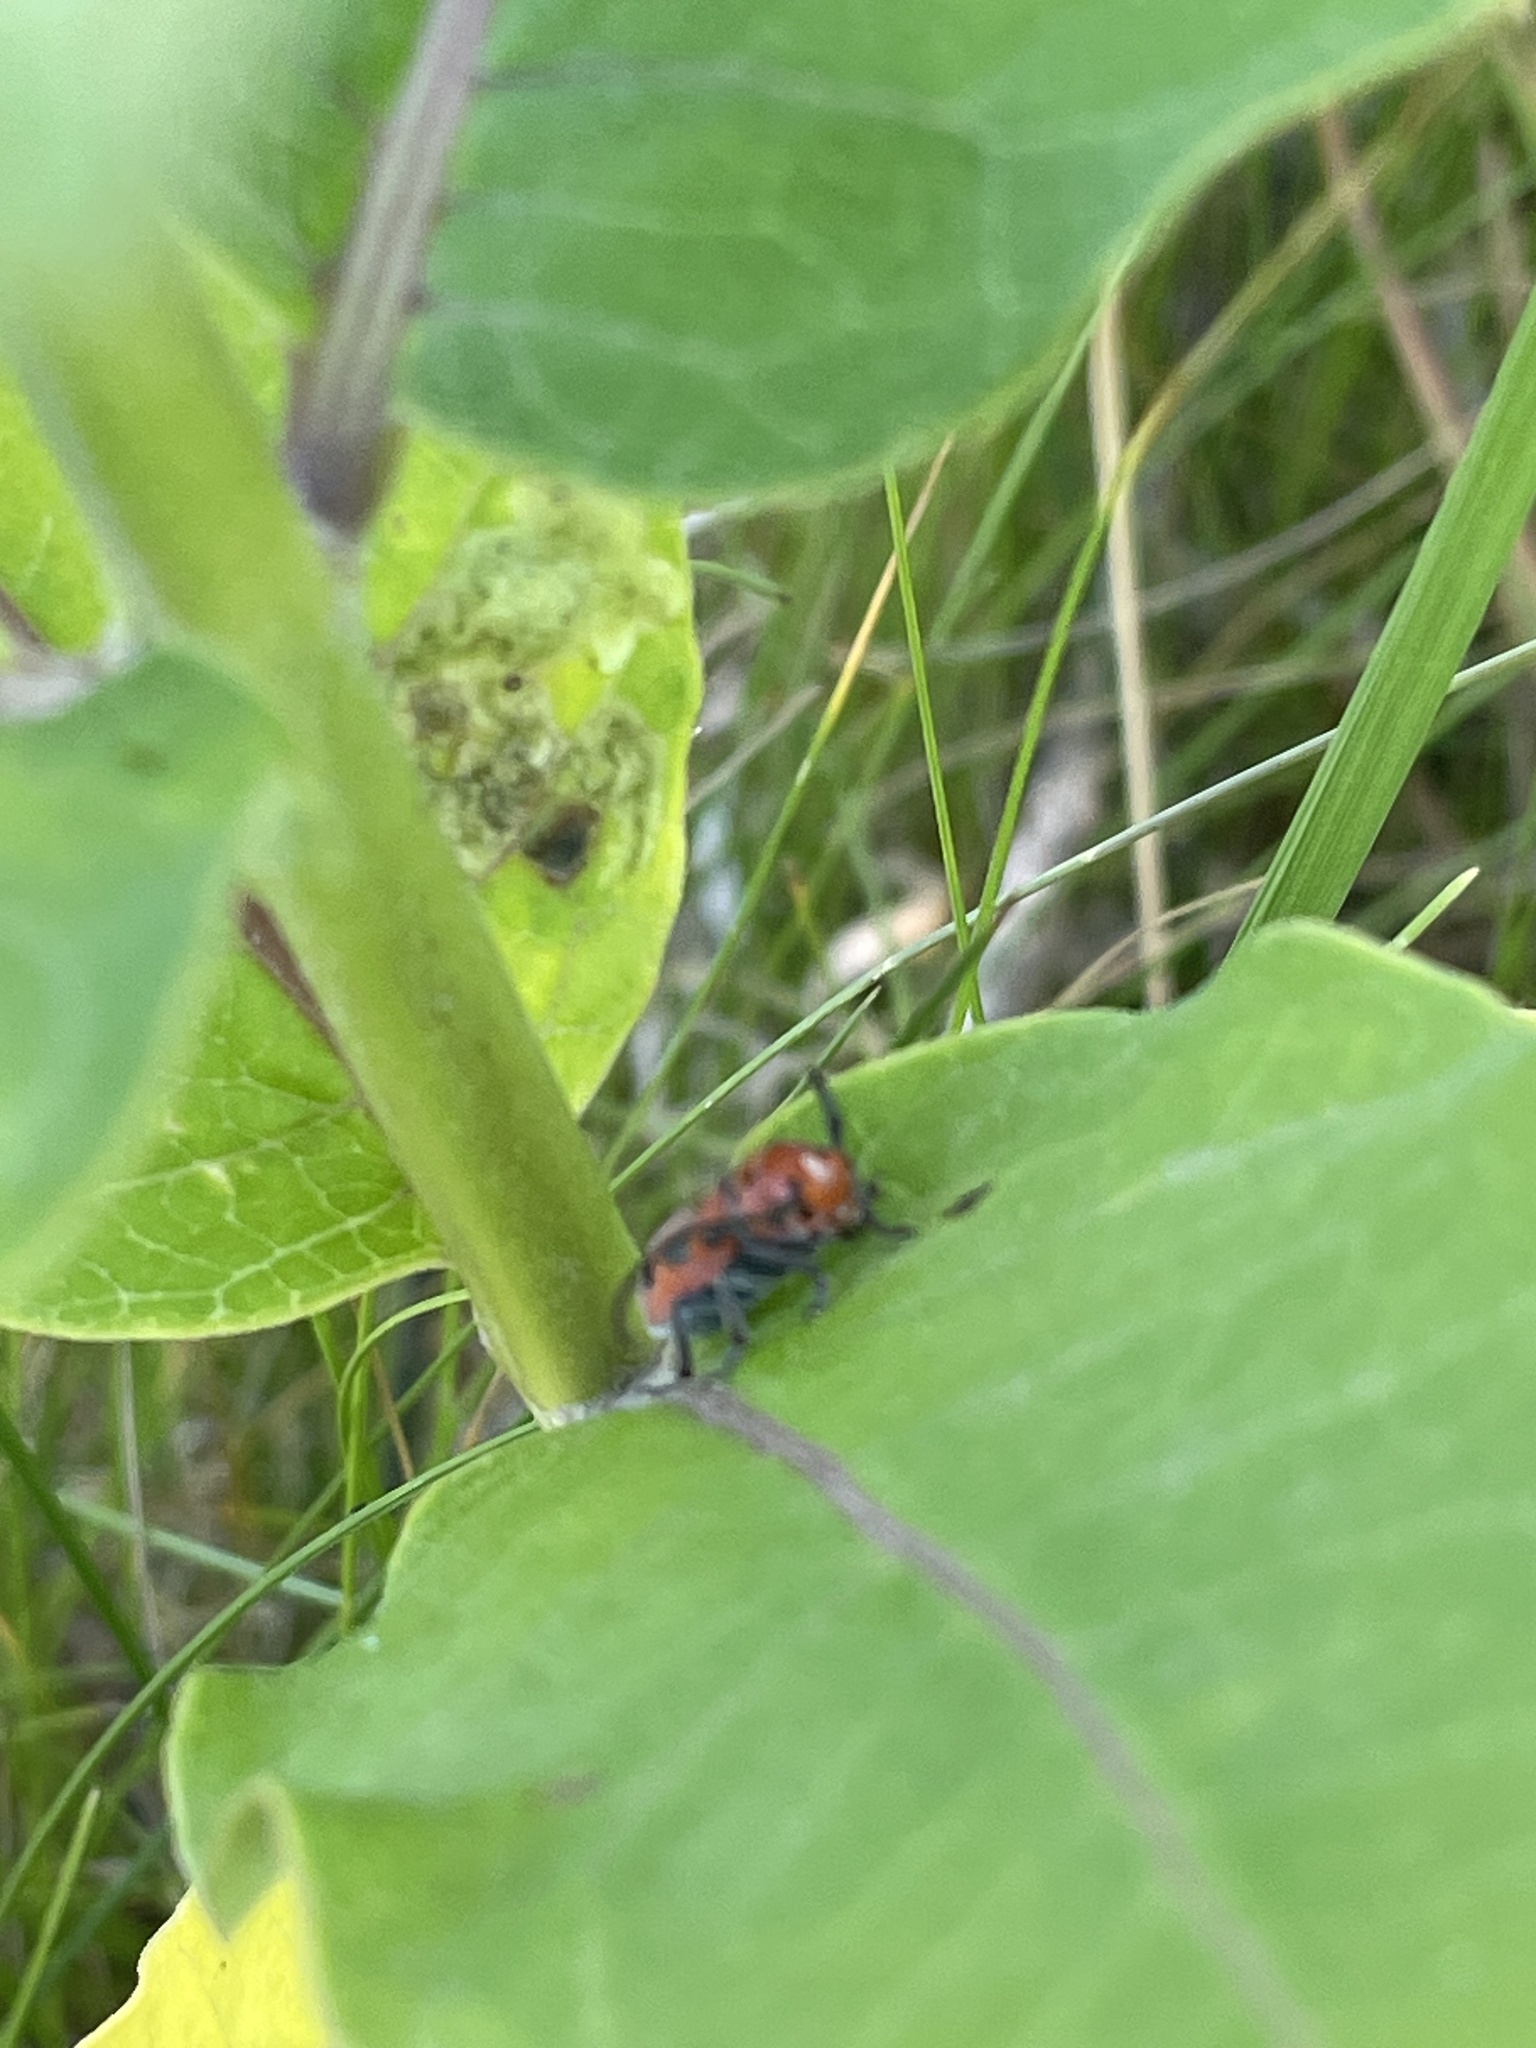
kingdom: Animalia
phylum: Arthropoda
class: Insecta
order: Coleoptera
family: Cerambycidae
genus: Tetraopes
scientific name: Tetraopes tetrophthalmus
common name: Red milkweed beetle
